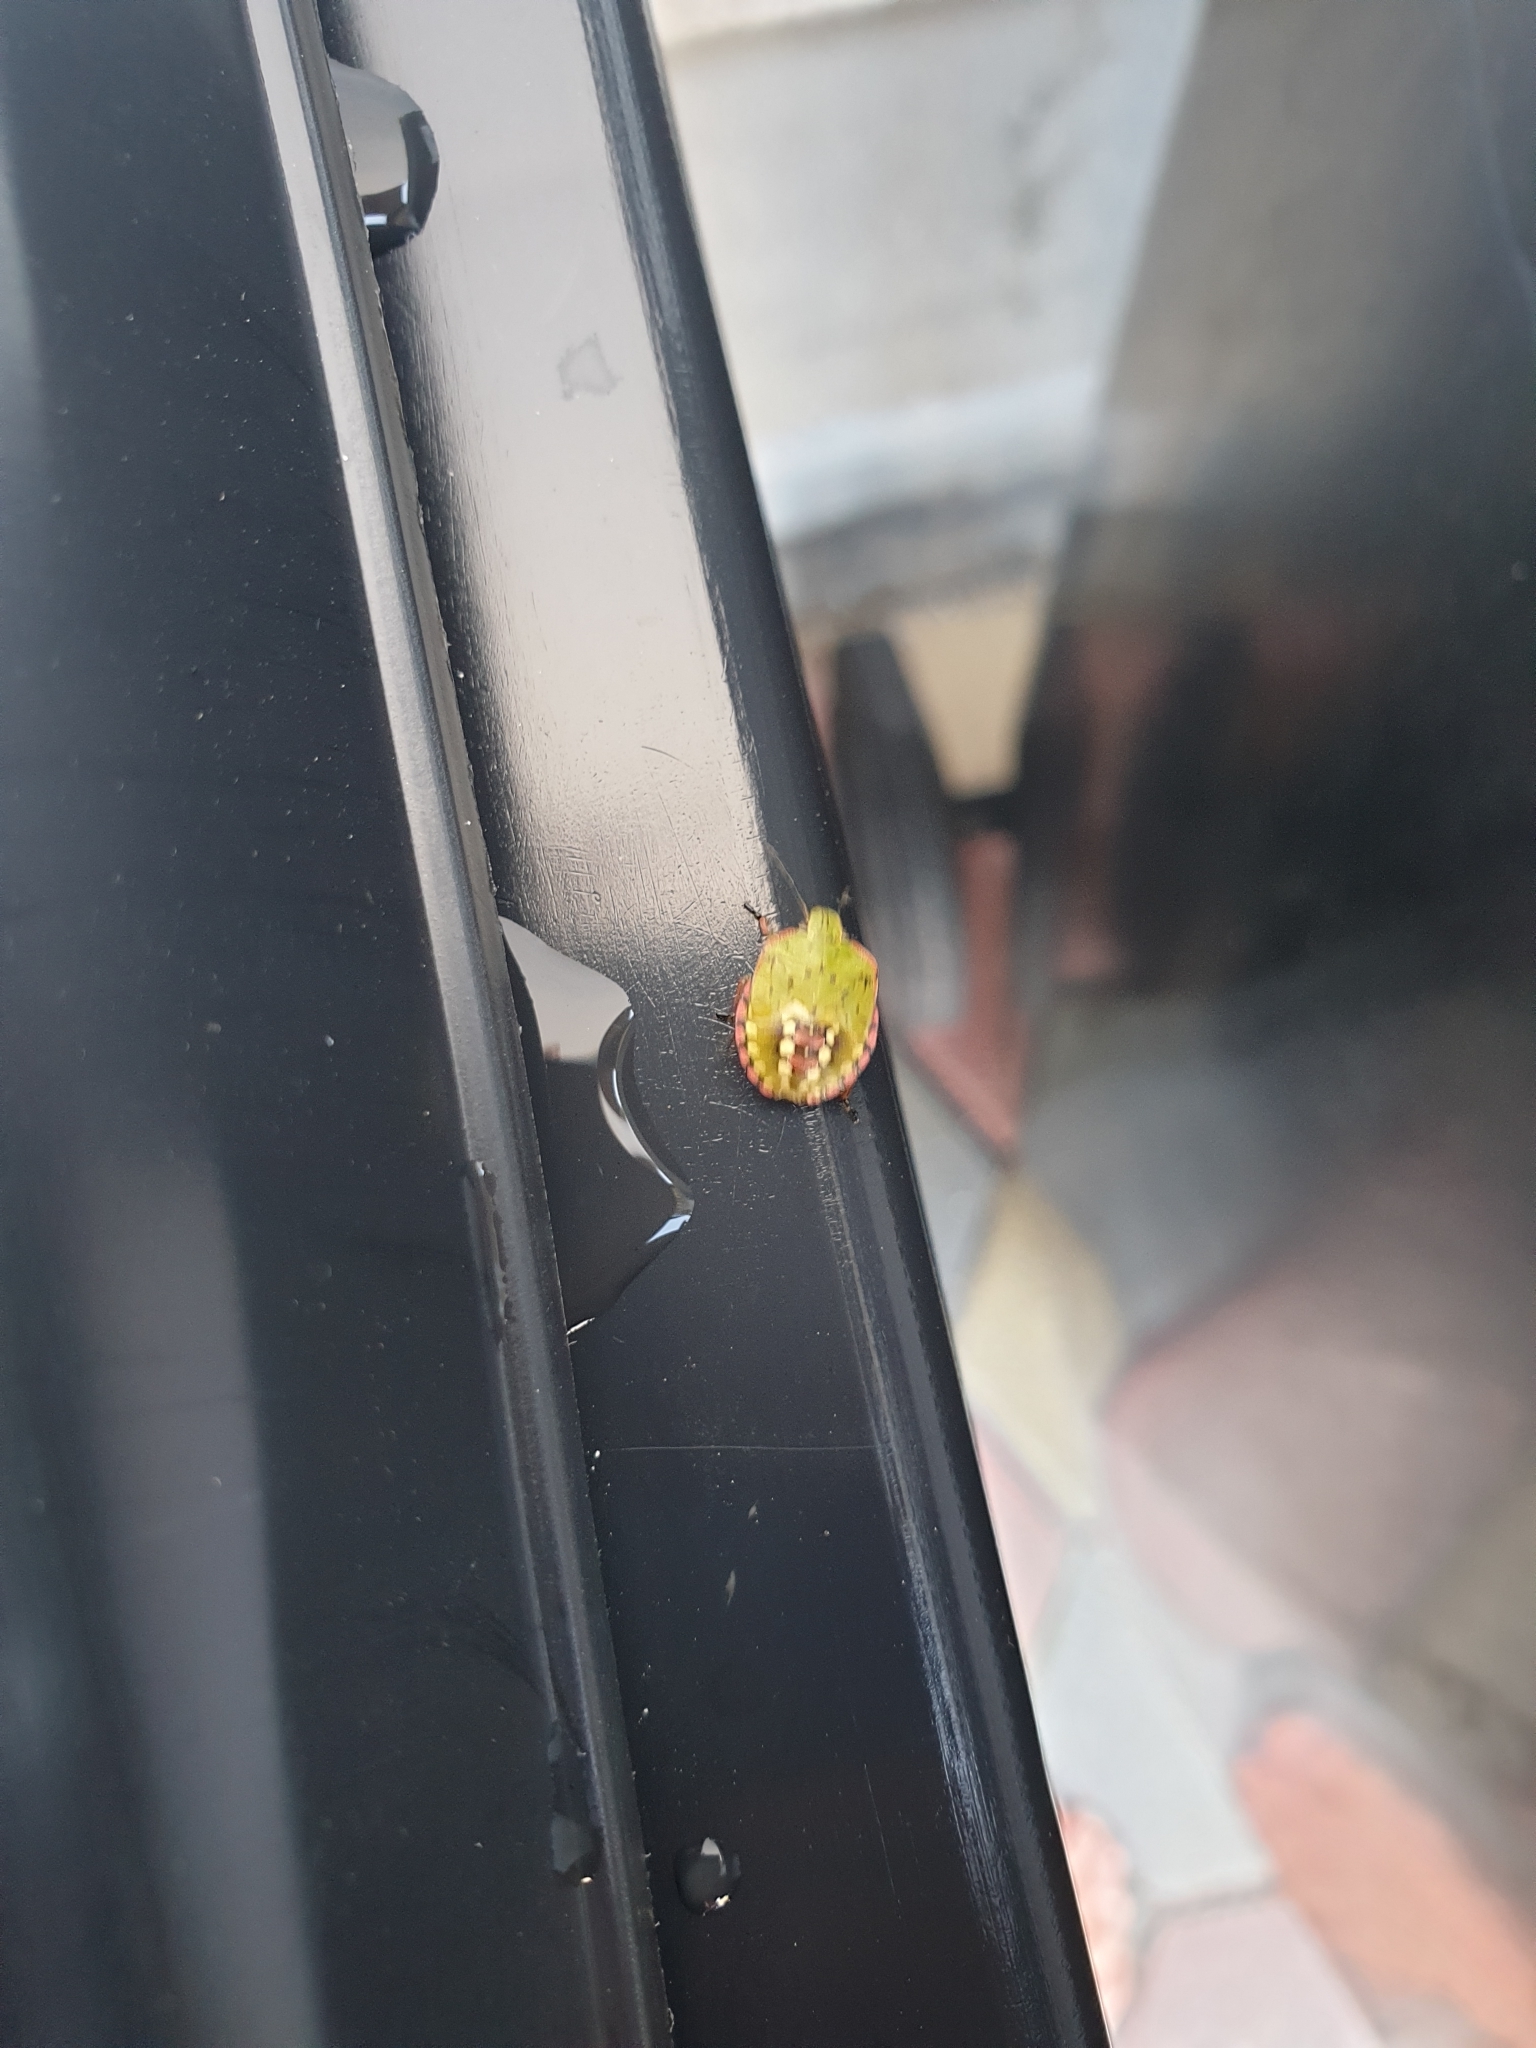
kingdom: Animalia
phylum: Arthropoda
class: Insecta
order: Hemiptera
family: Pentatomidae
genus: Nezara
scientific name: Nezara viridula
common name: Southern green stink bug
